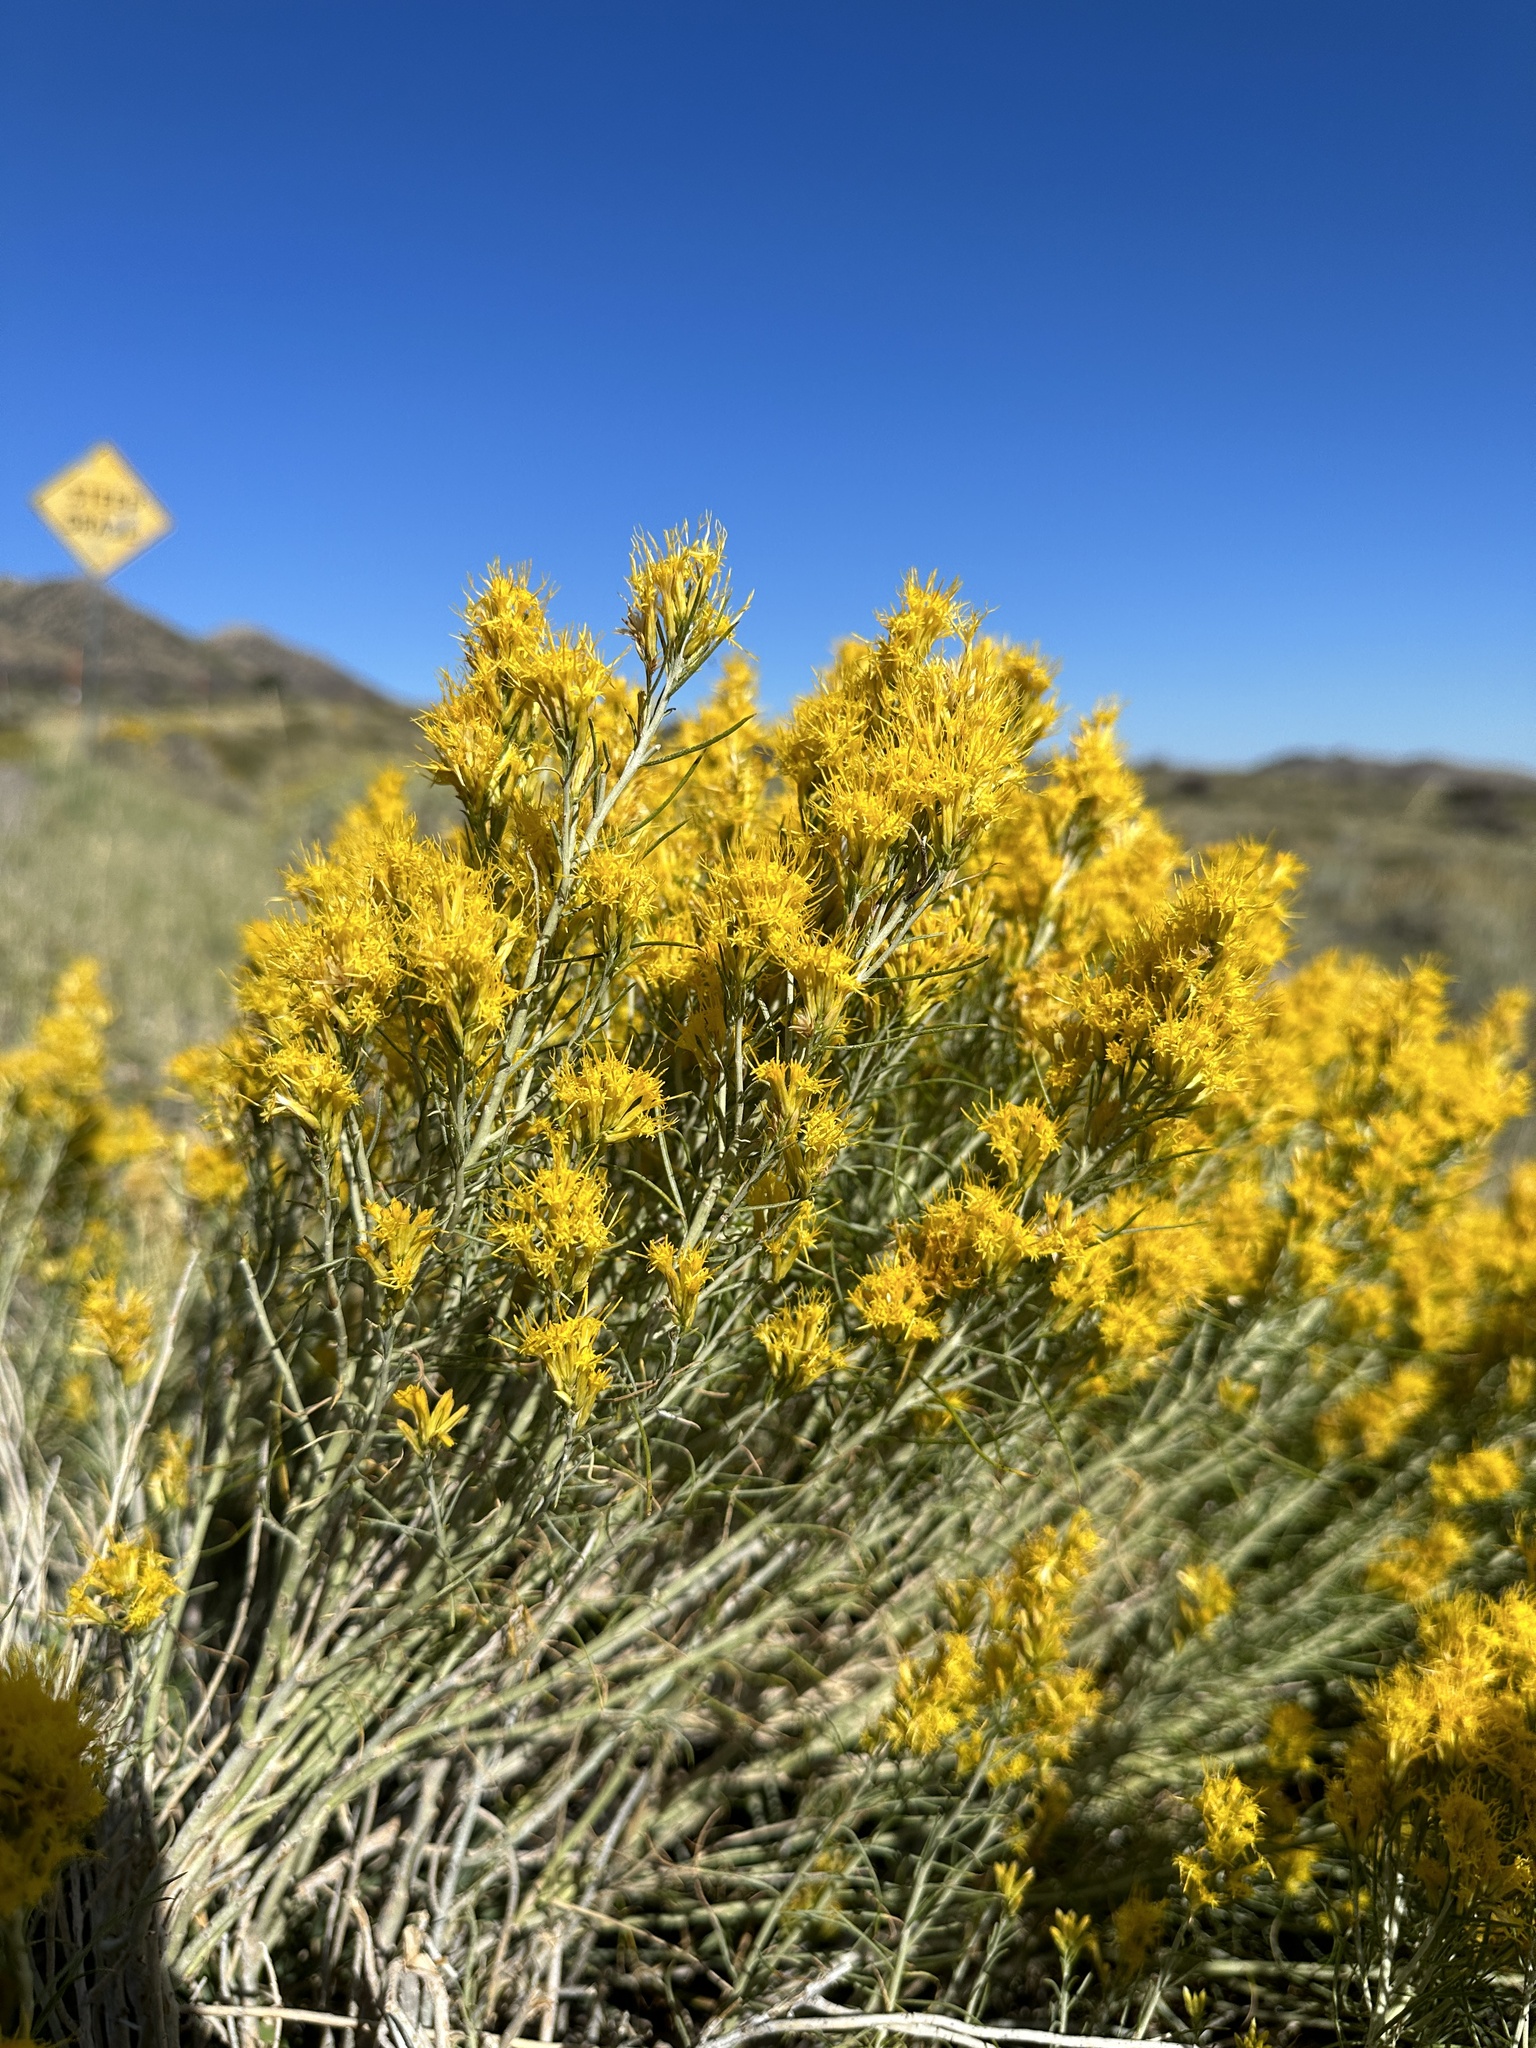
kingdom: Plantae
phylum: Tracheophyta
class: Magnoliopsida
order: Asterales
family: Asteraceae
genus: Ericameria
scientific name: Ericameria nauseosa
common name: Rubber rabbitbrush
